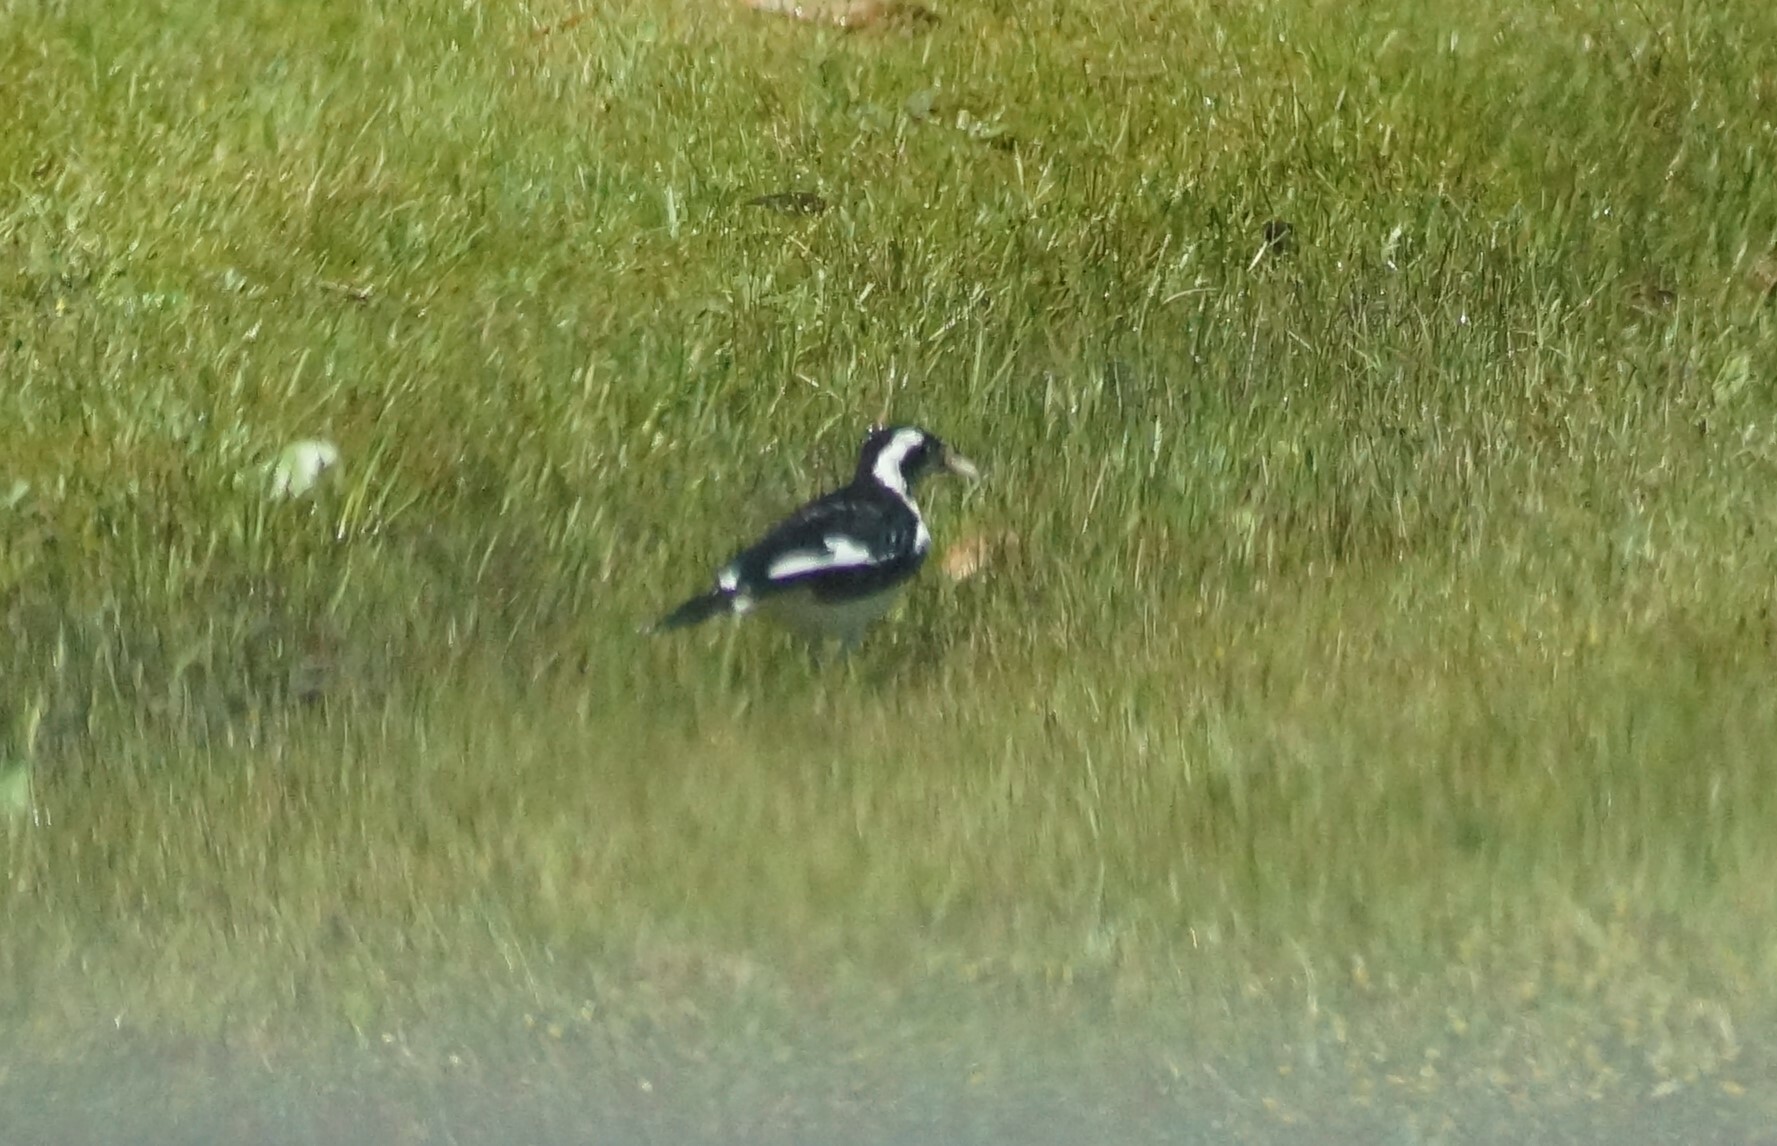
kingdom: Animalia
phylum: Chordata
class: Aves
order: Passeriformes
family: Monarchidae
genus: Grallina
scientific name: Grallina cyanoleuca
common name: Magpie-lark
